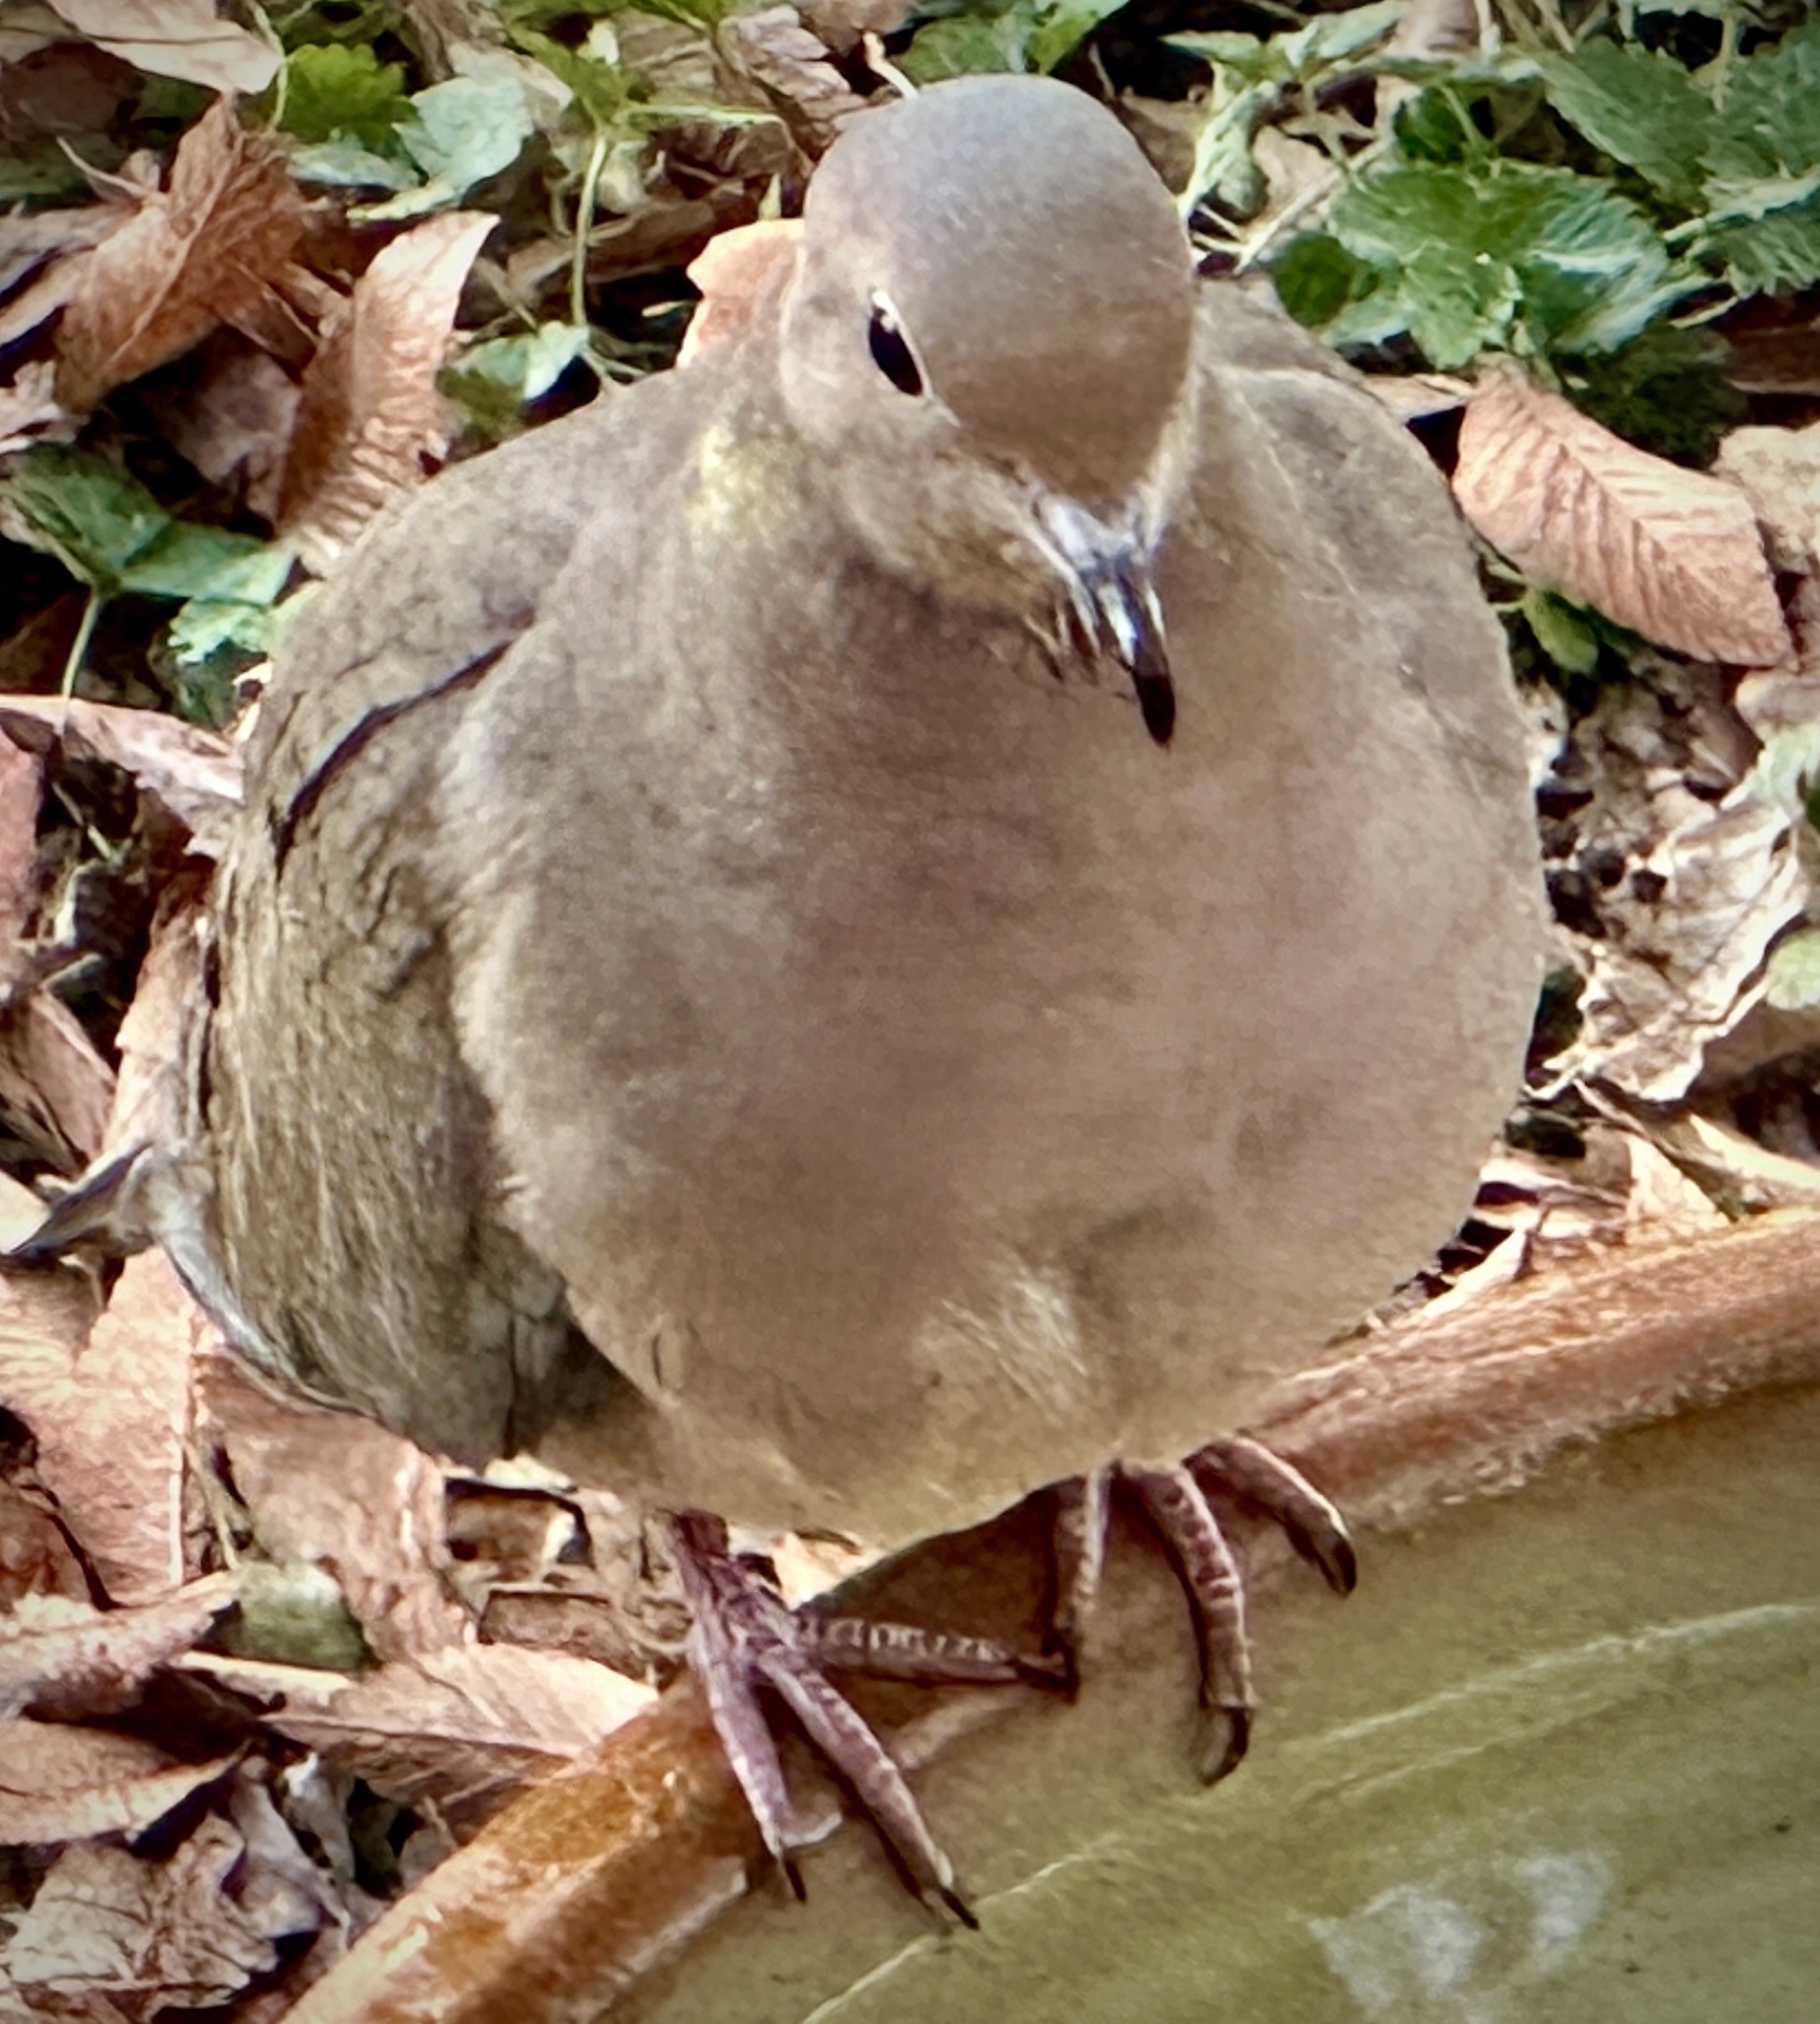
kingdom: Animalia
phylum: Chordata
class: Aves
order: Columbiformes
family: Columbidae
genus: Zenaida
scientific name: Zenaida macroura
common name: Mourning dove
